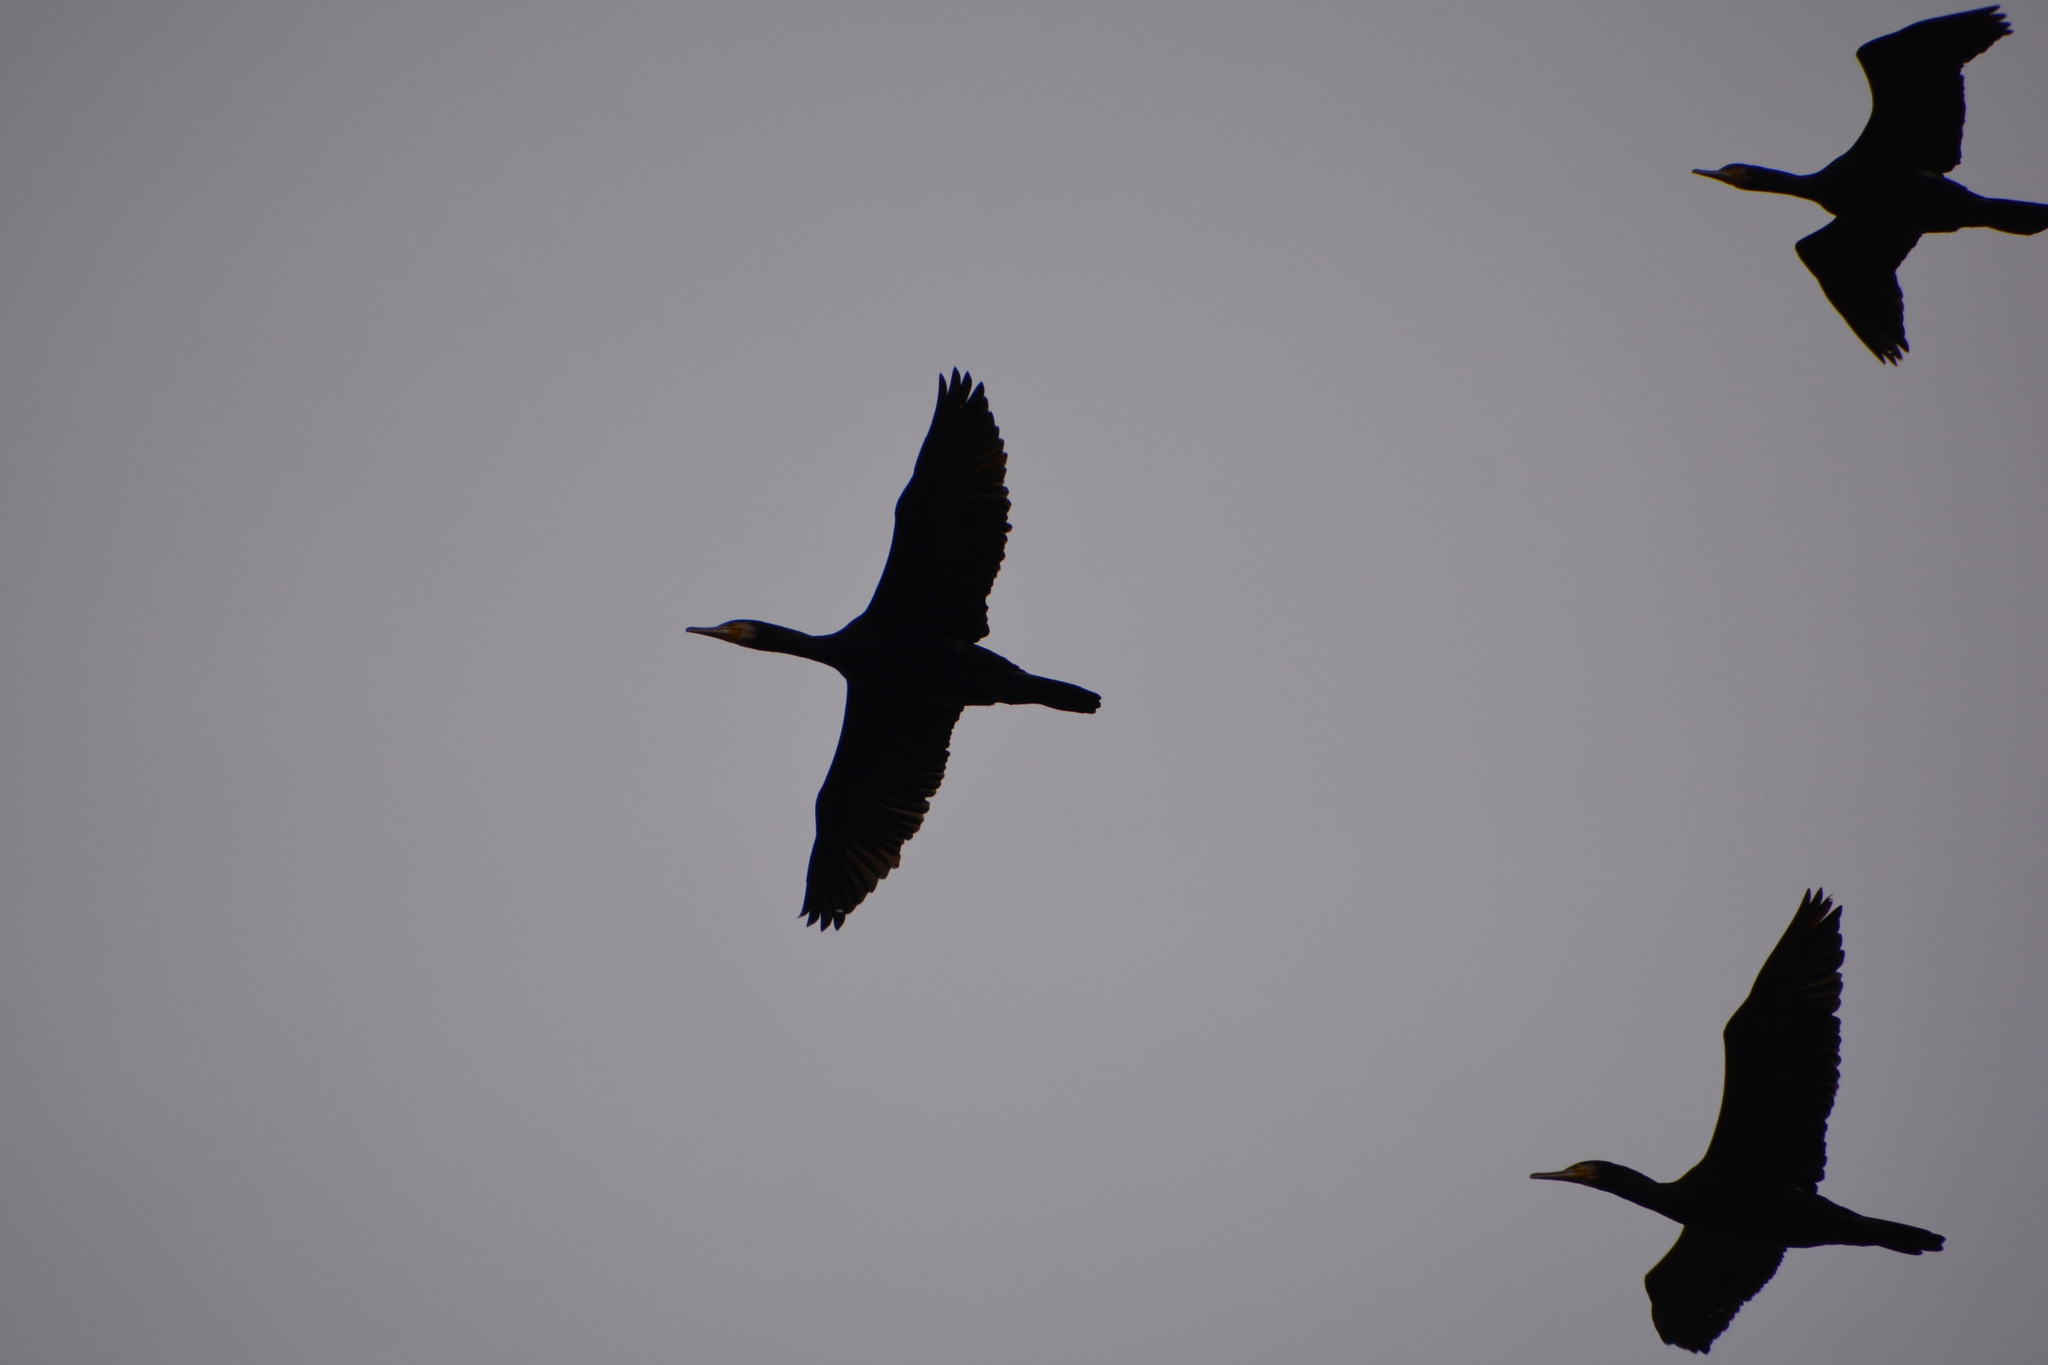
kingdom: Animalia
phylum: Chordata
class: Aves
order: Suliformes
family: Phalacrocoracidae
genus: Phalacrocorax
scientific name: Phalacrocorax carbo
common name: Great cormorant
